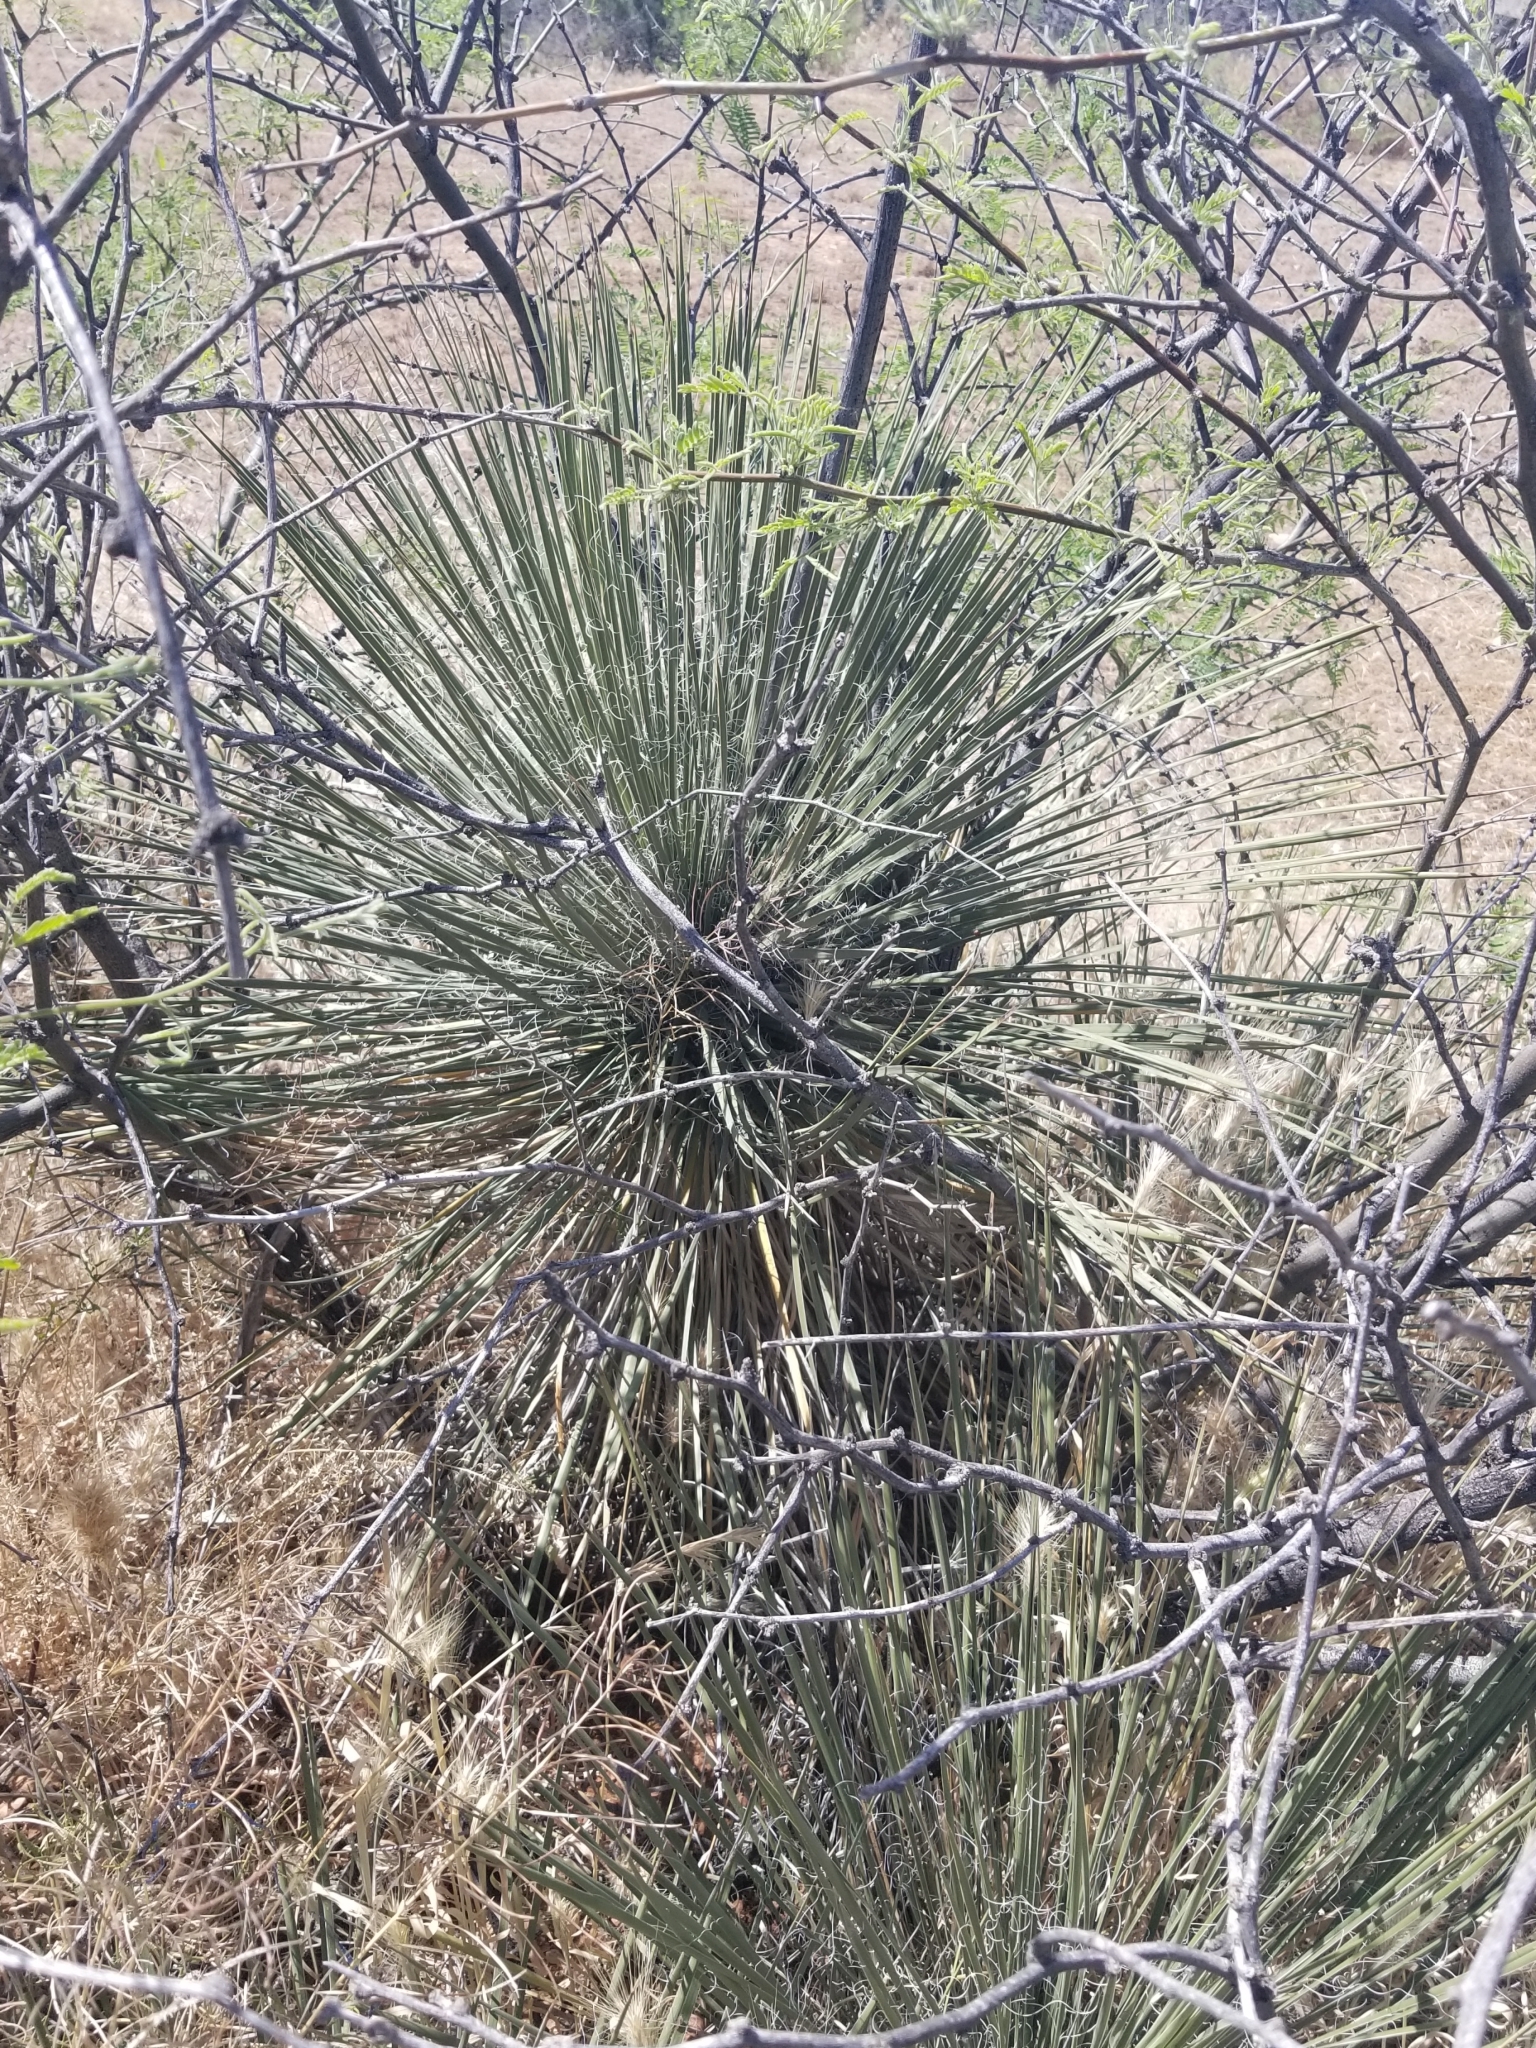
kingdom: Plantae
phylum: Tracheophyta
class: Liliopsida
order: Asparagales
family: Asparagaceae
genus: Yucca
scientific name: Yucca elata
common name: Palmella
